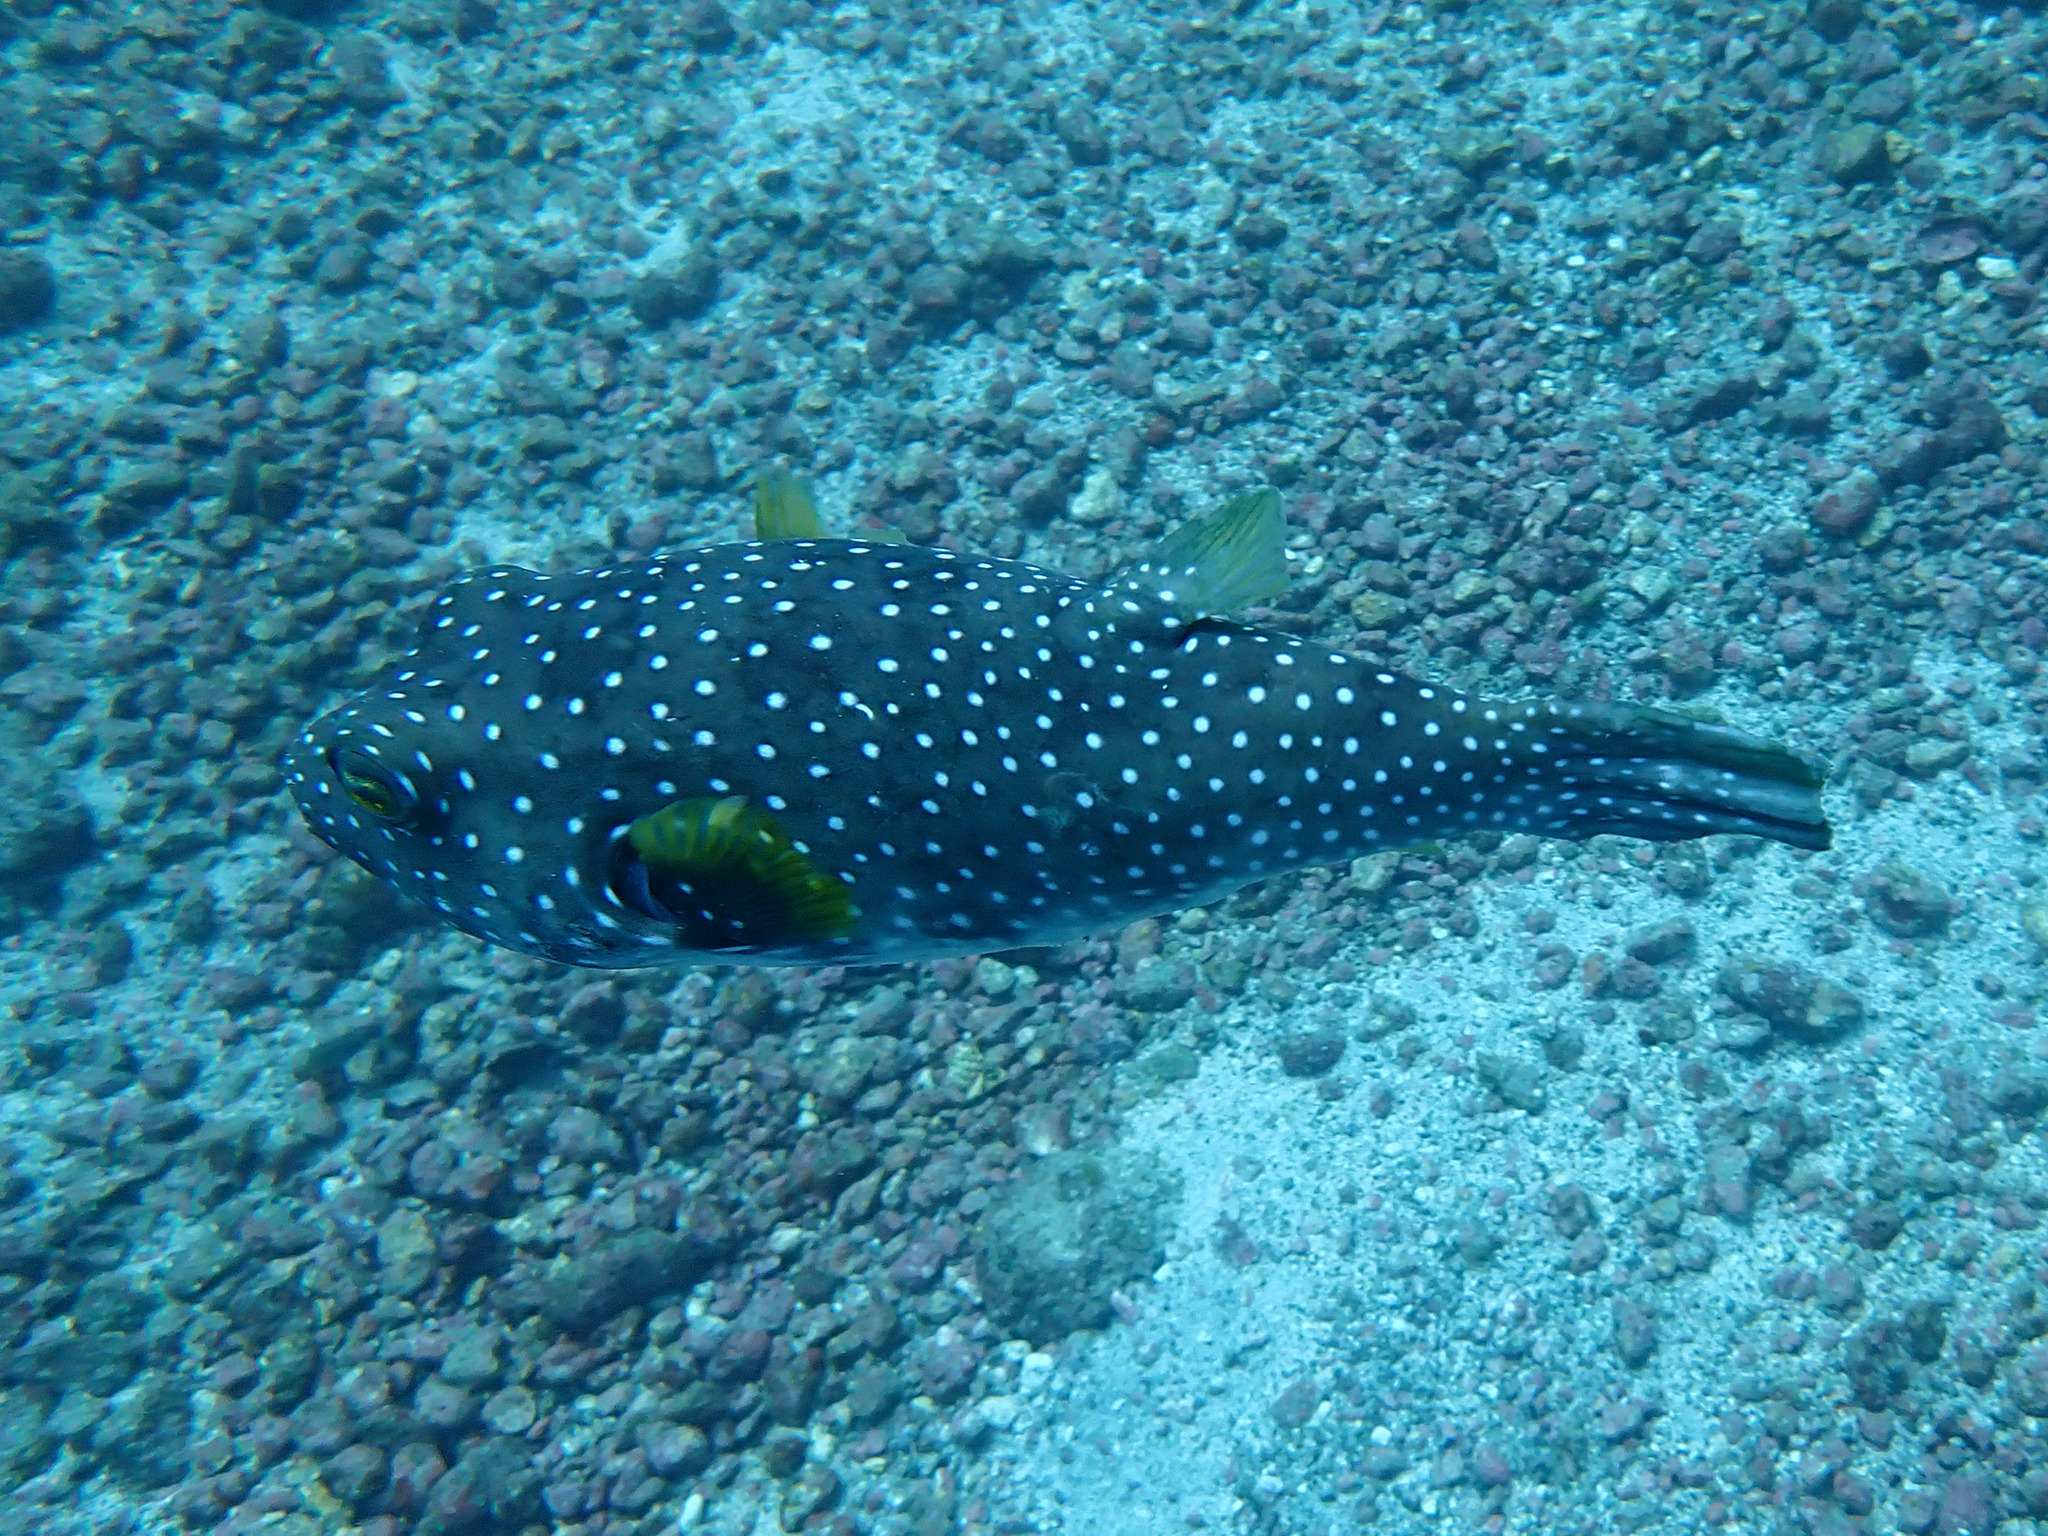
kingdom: Animalia
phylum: Chordata
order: Tetraodontiformes
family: Tetraodontidae
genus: Arothron
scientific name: Arothron hispidus
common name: Stripebelly puffer
